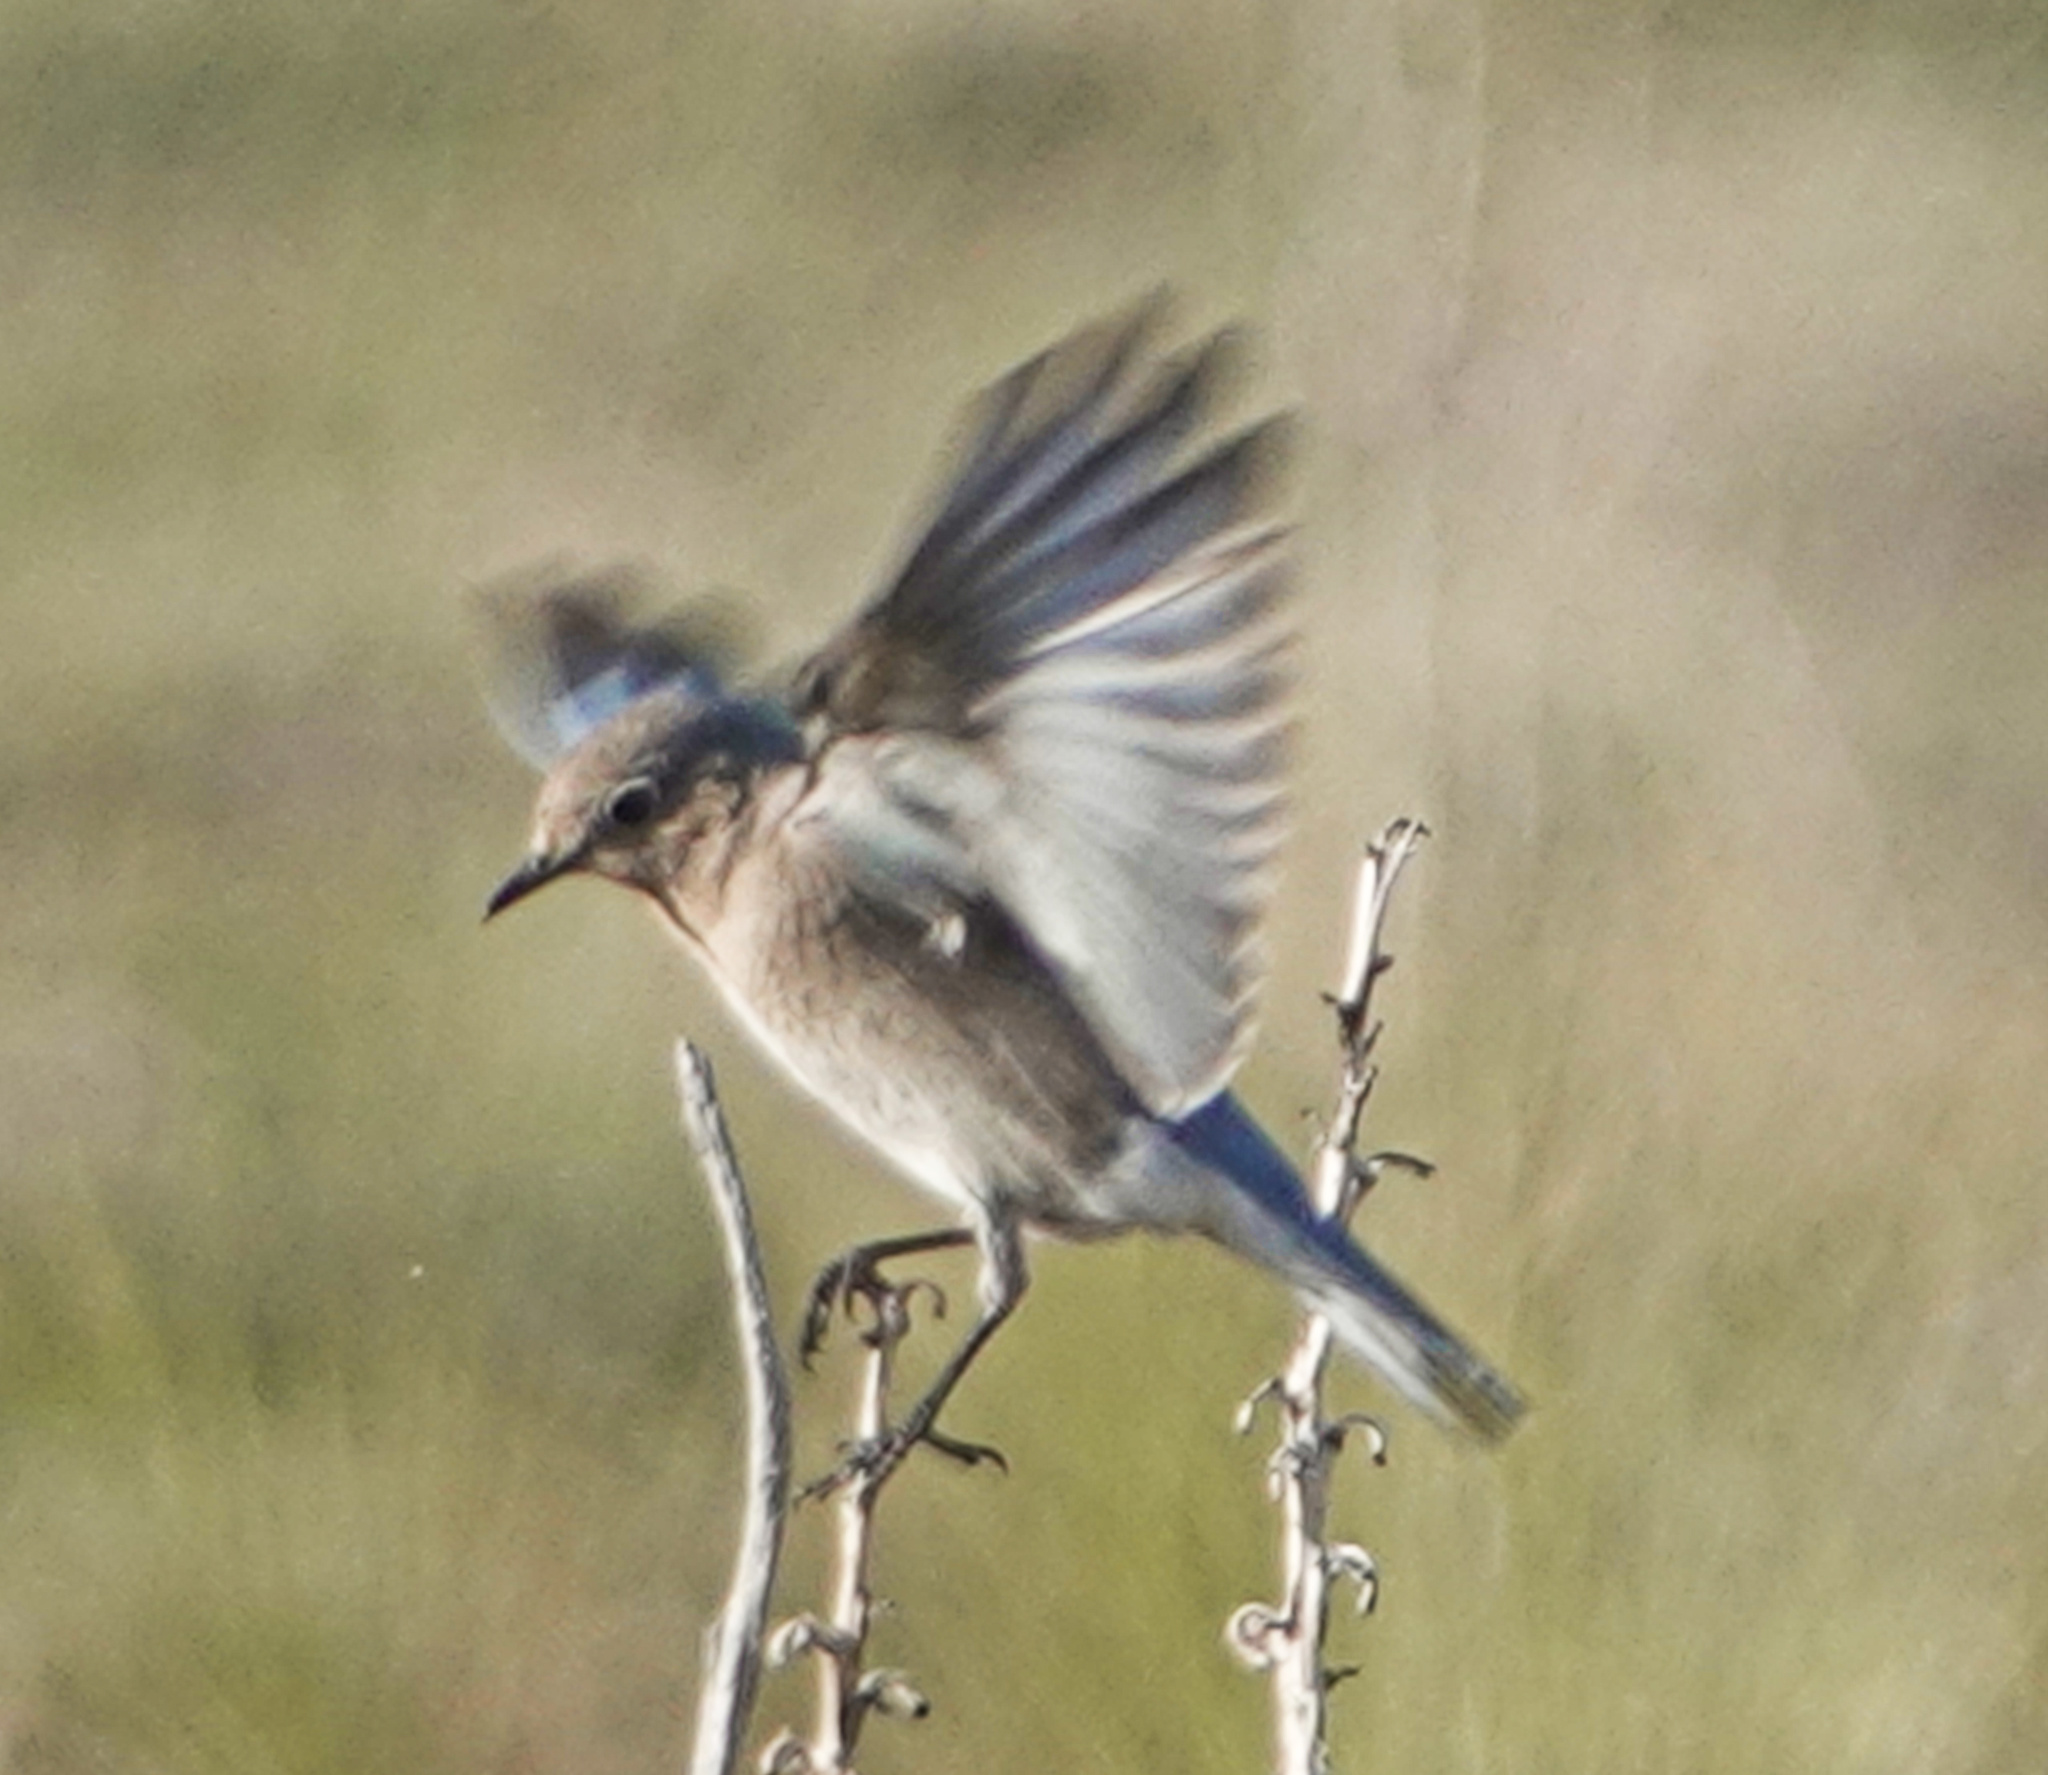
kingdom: Animalia
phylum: Chordata
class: Aves
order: Passeriformes
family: Turdidae
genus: Sialia
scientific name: Sialia currucoides
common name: Mountain bluebird
